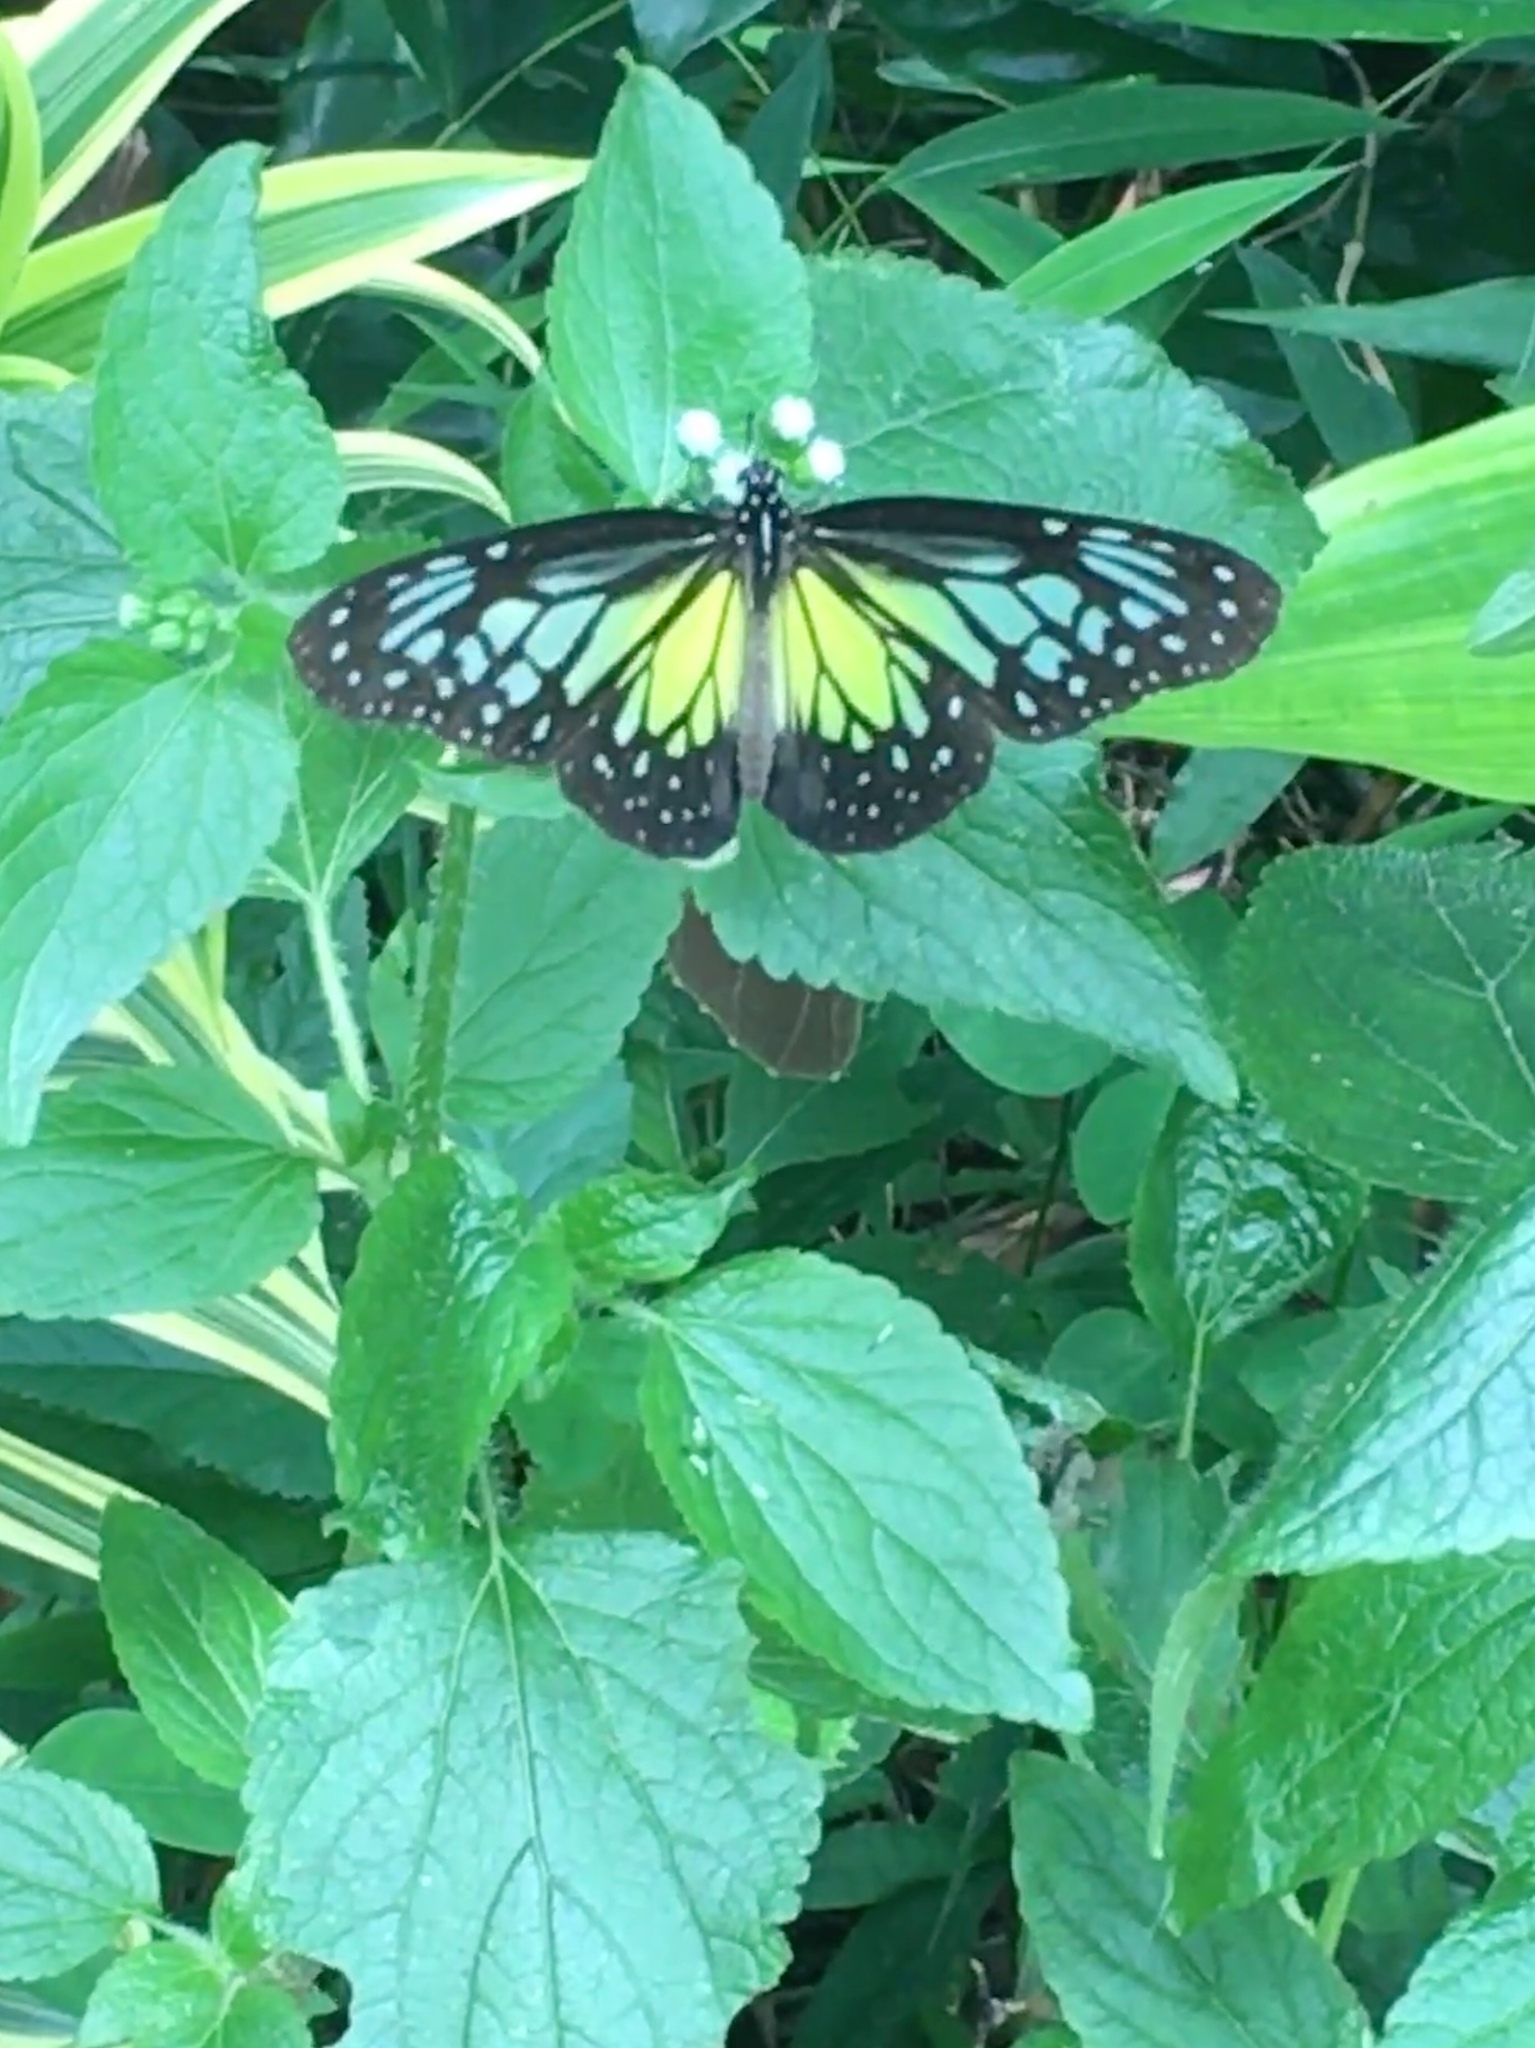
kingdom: Animalia
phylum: Arthropoda
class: Insecta
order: Lepidoptera
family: Nymphalidae
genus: Parantica
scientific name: Parantica aspasia
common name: Yellow glassy tiger
